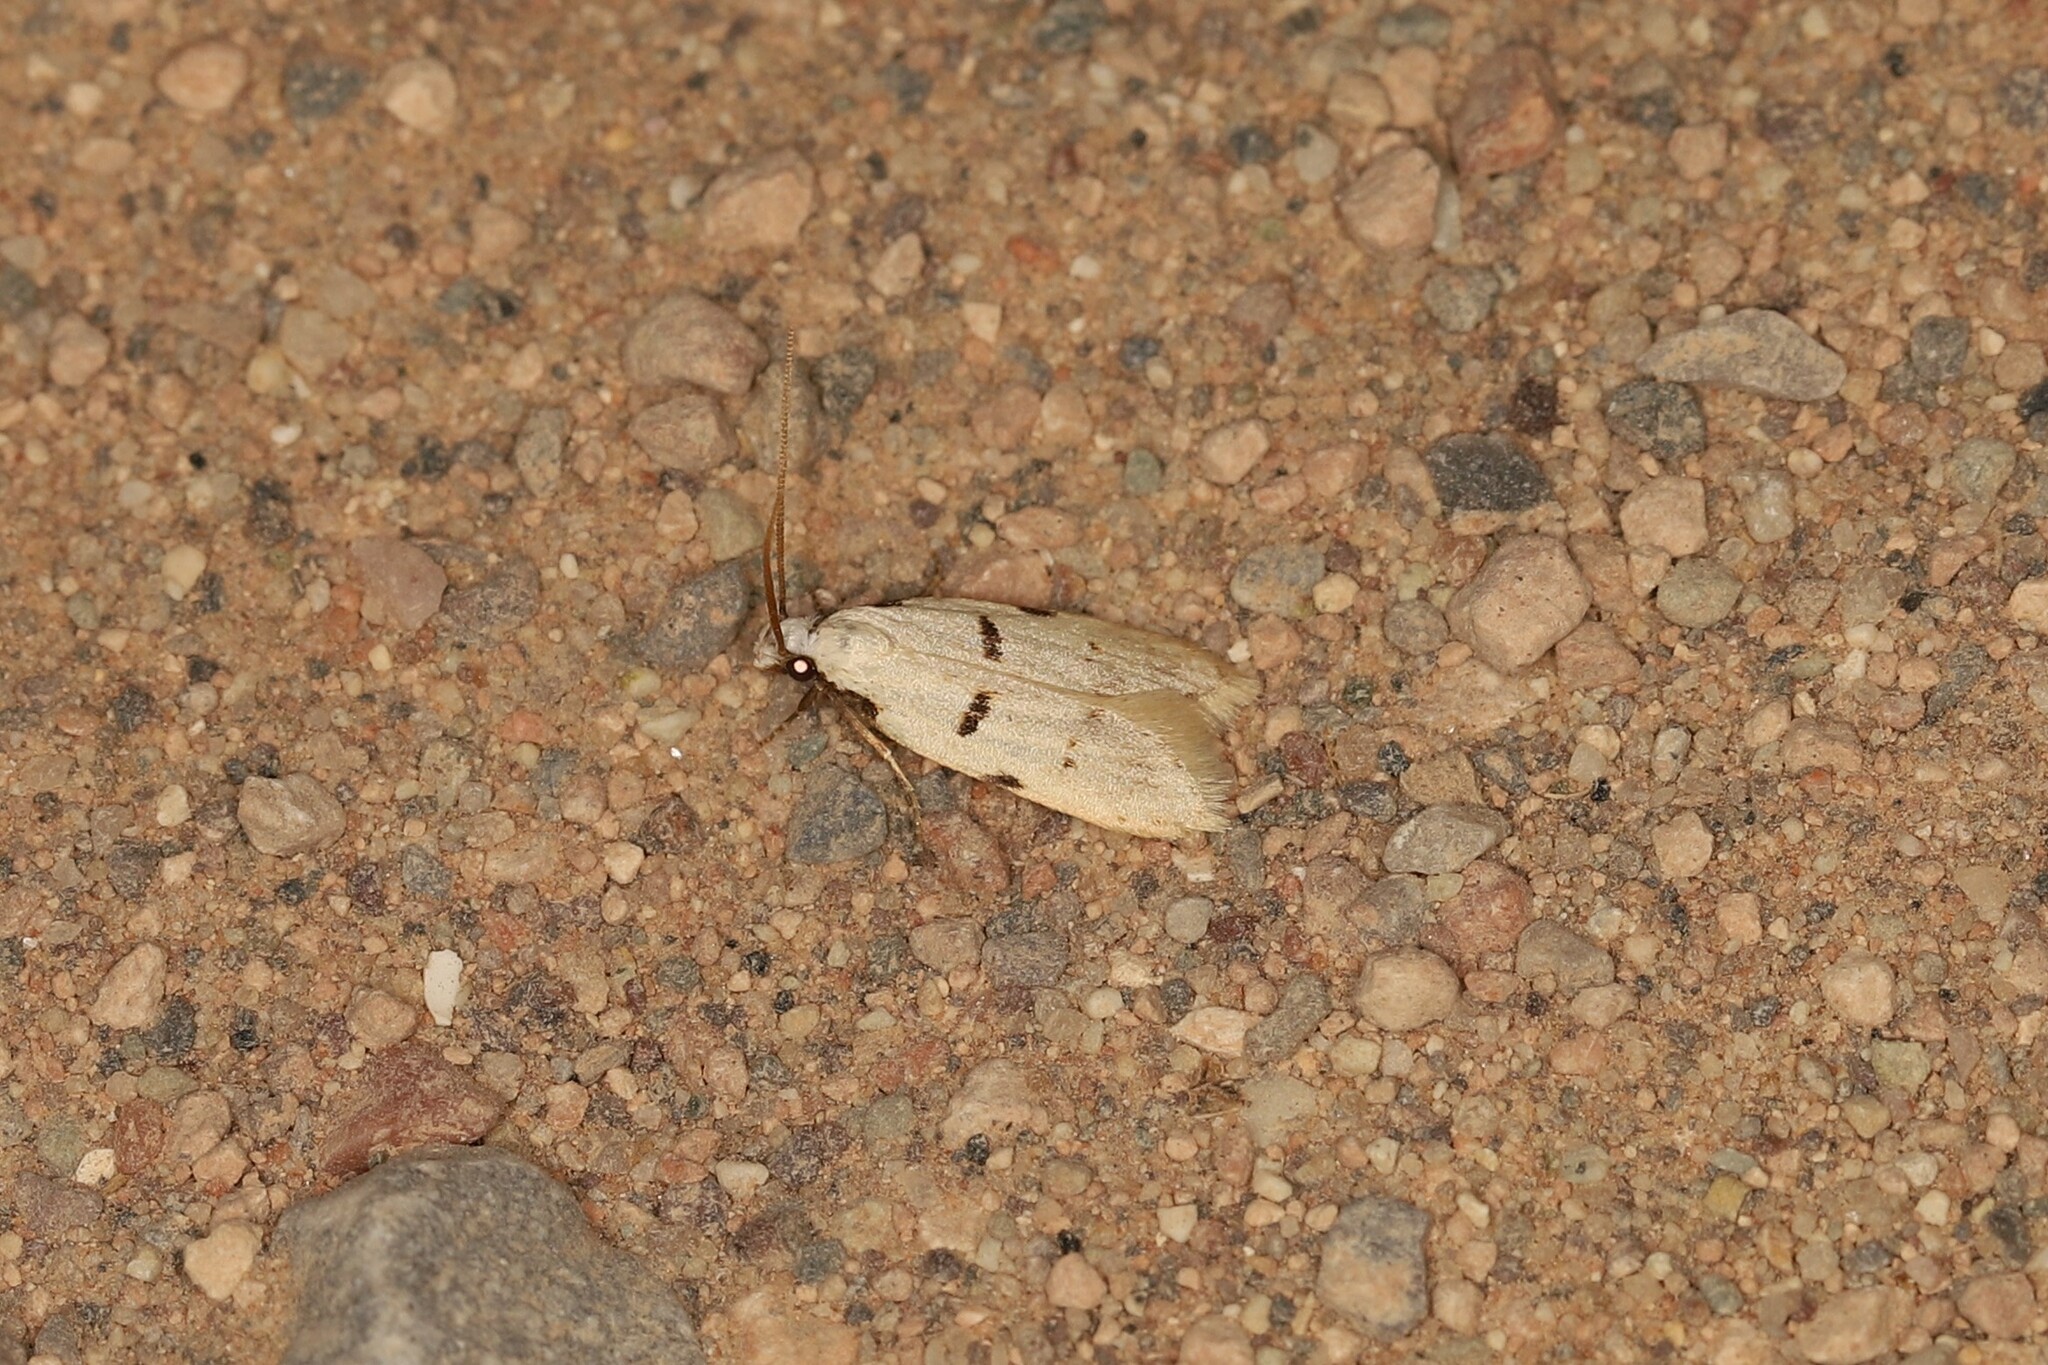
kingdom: Animalia
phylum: Arthropoda
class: Insecta
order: Lepidoptera
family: Autostichidae
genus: Stibaromacha
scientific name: Stibaromacha ratella
